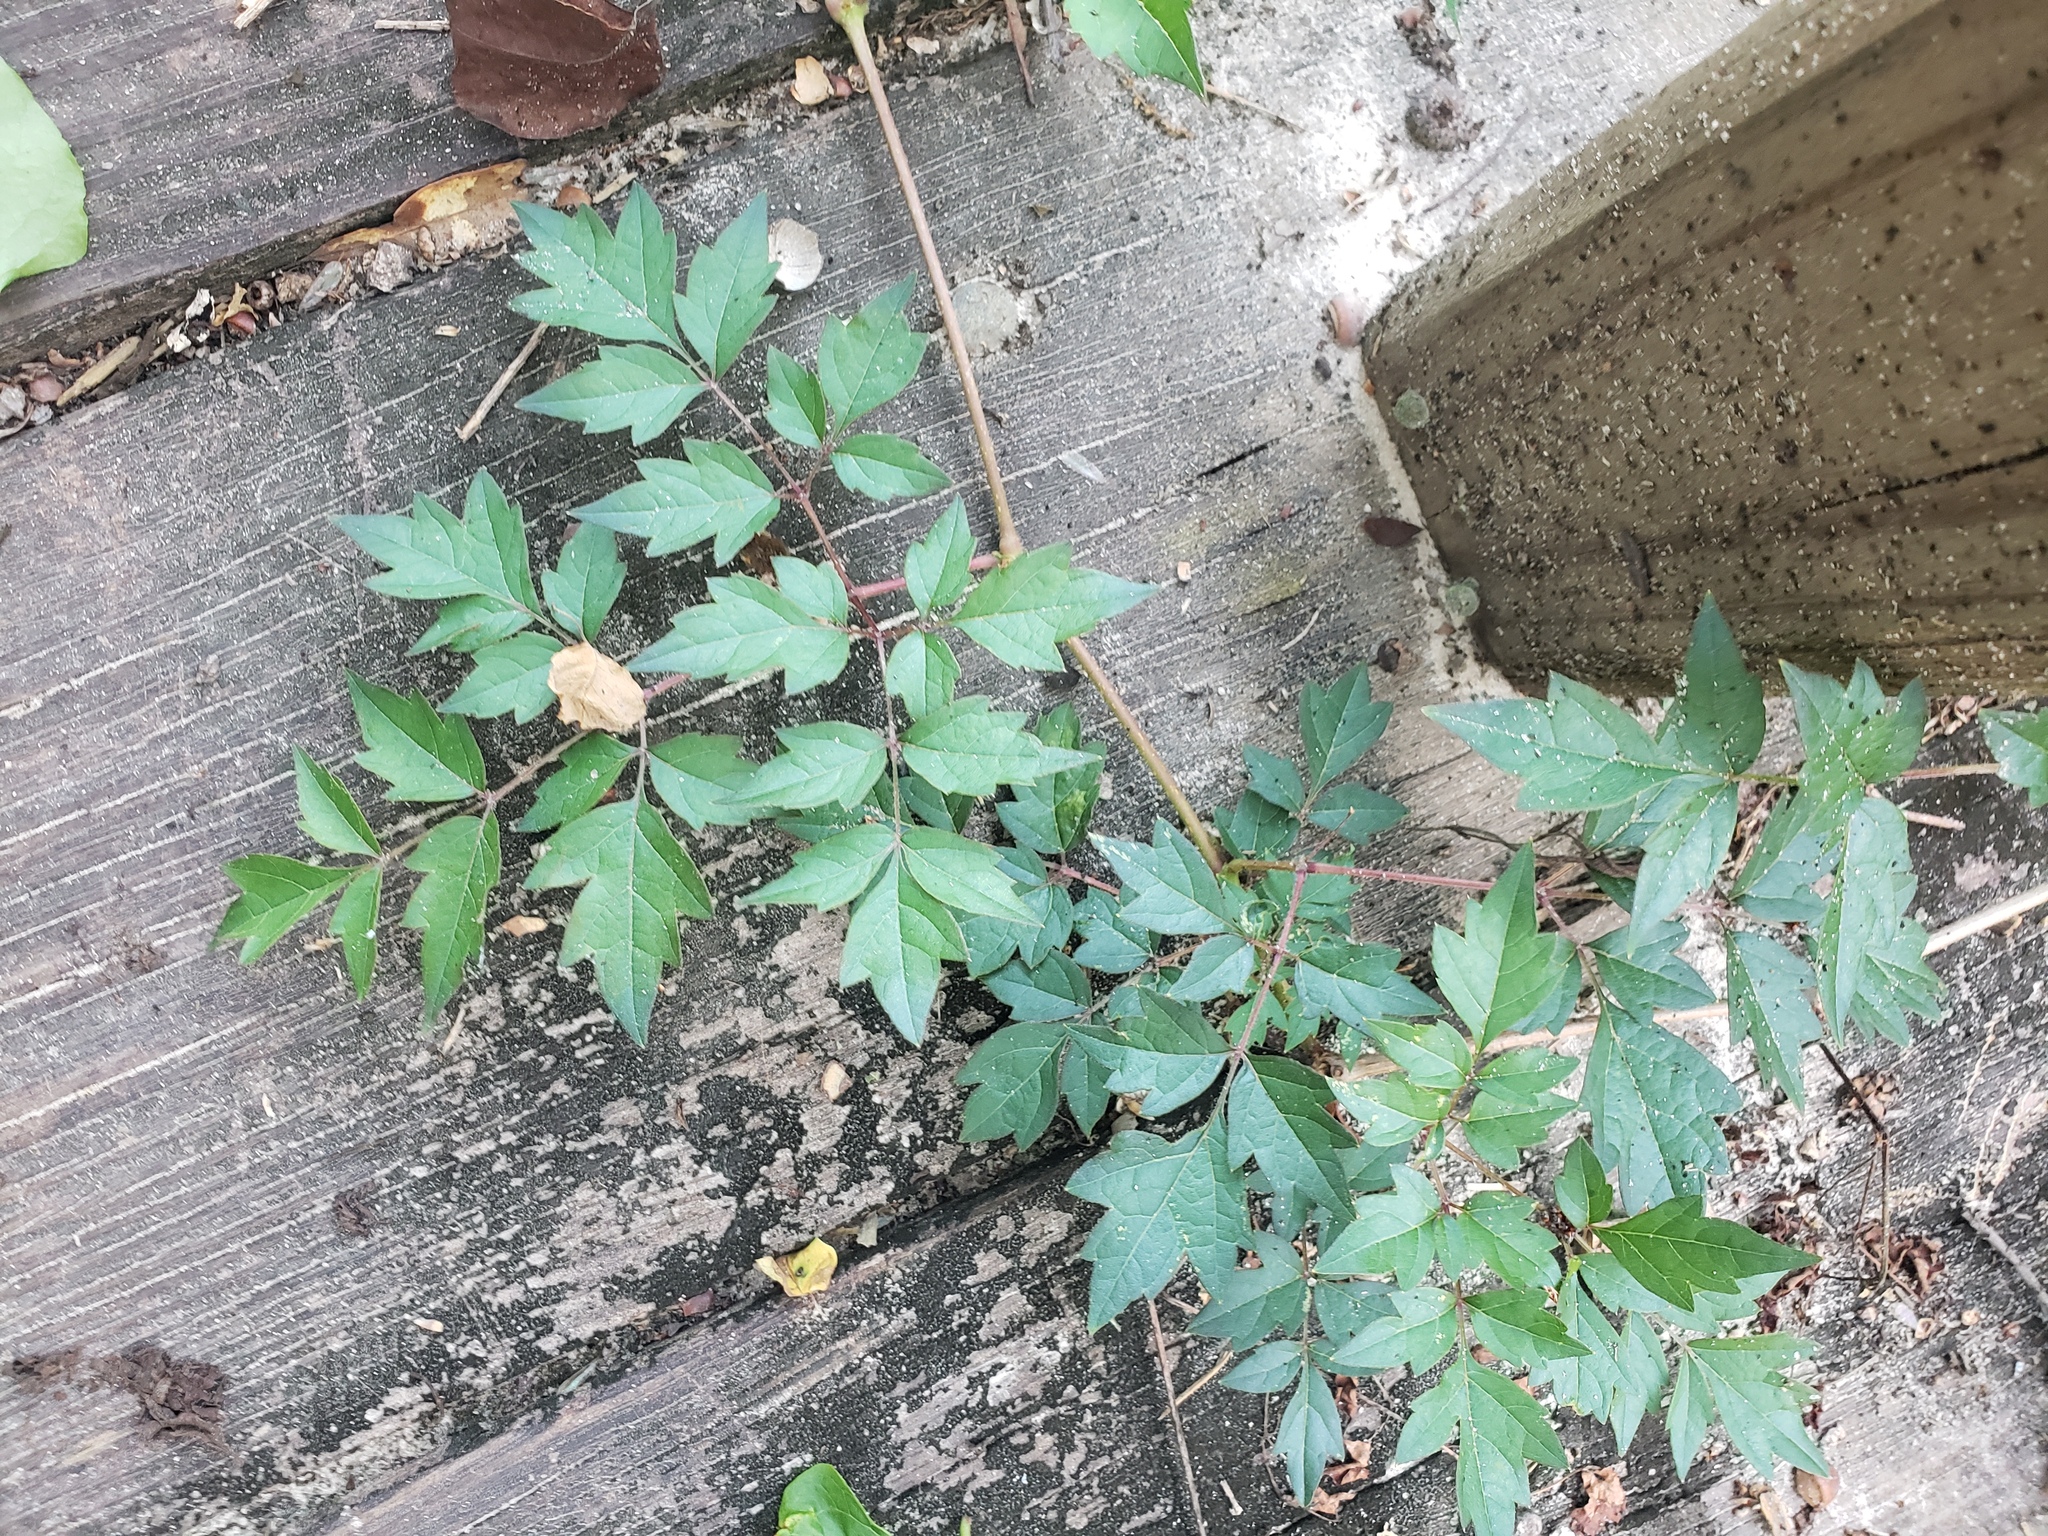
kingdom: Plantae
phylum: Tracheophyta
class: Magnoliopsida
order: Vitales
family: Vitaceae
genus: Nekemias
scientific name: Nekemias arborea
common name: Peppervine
